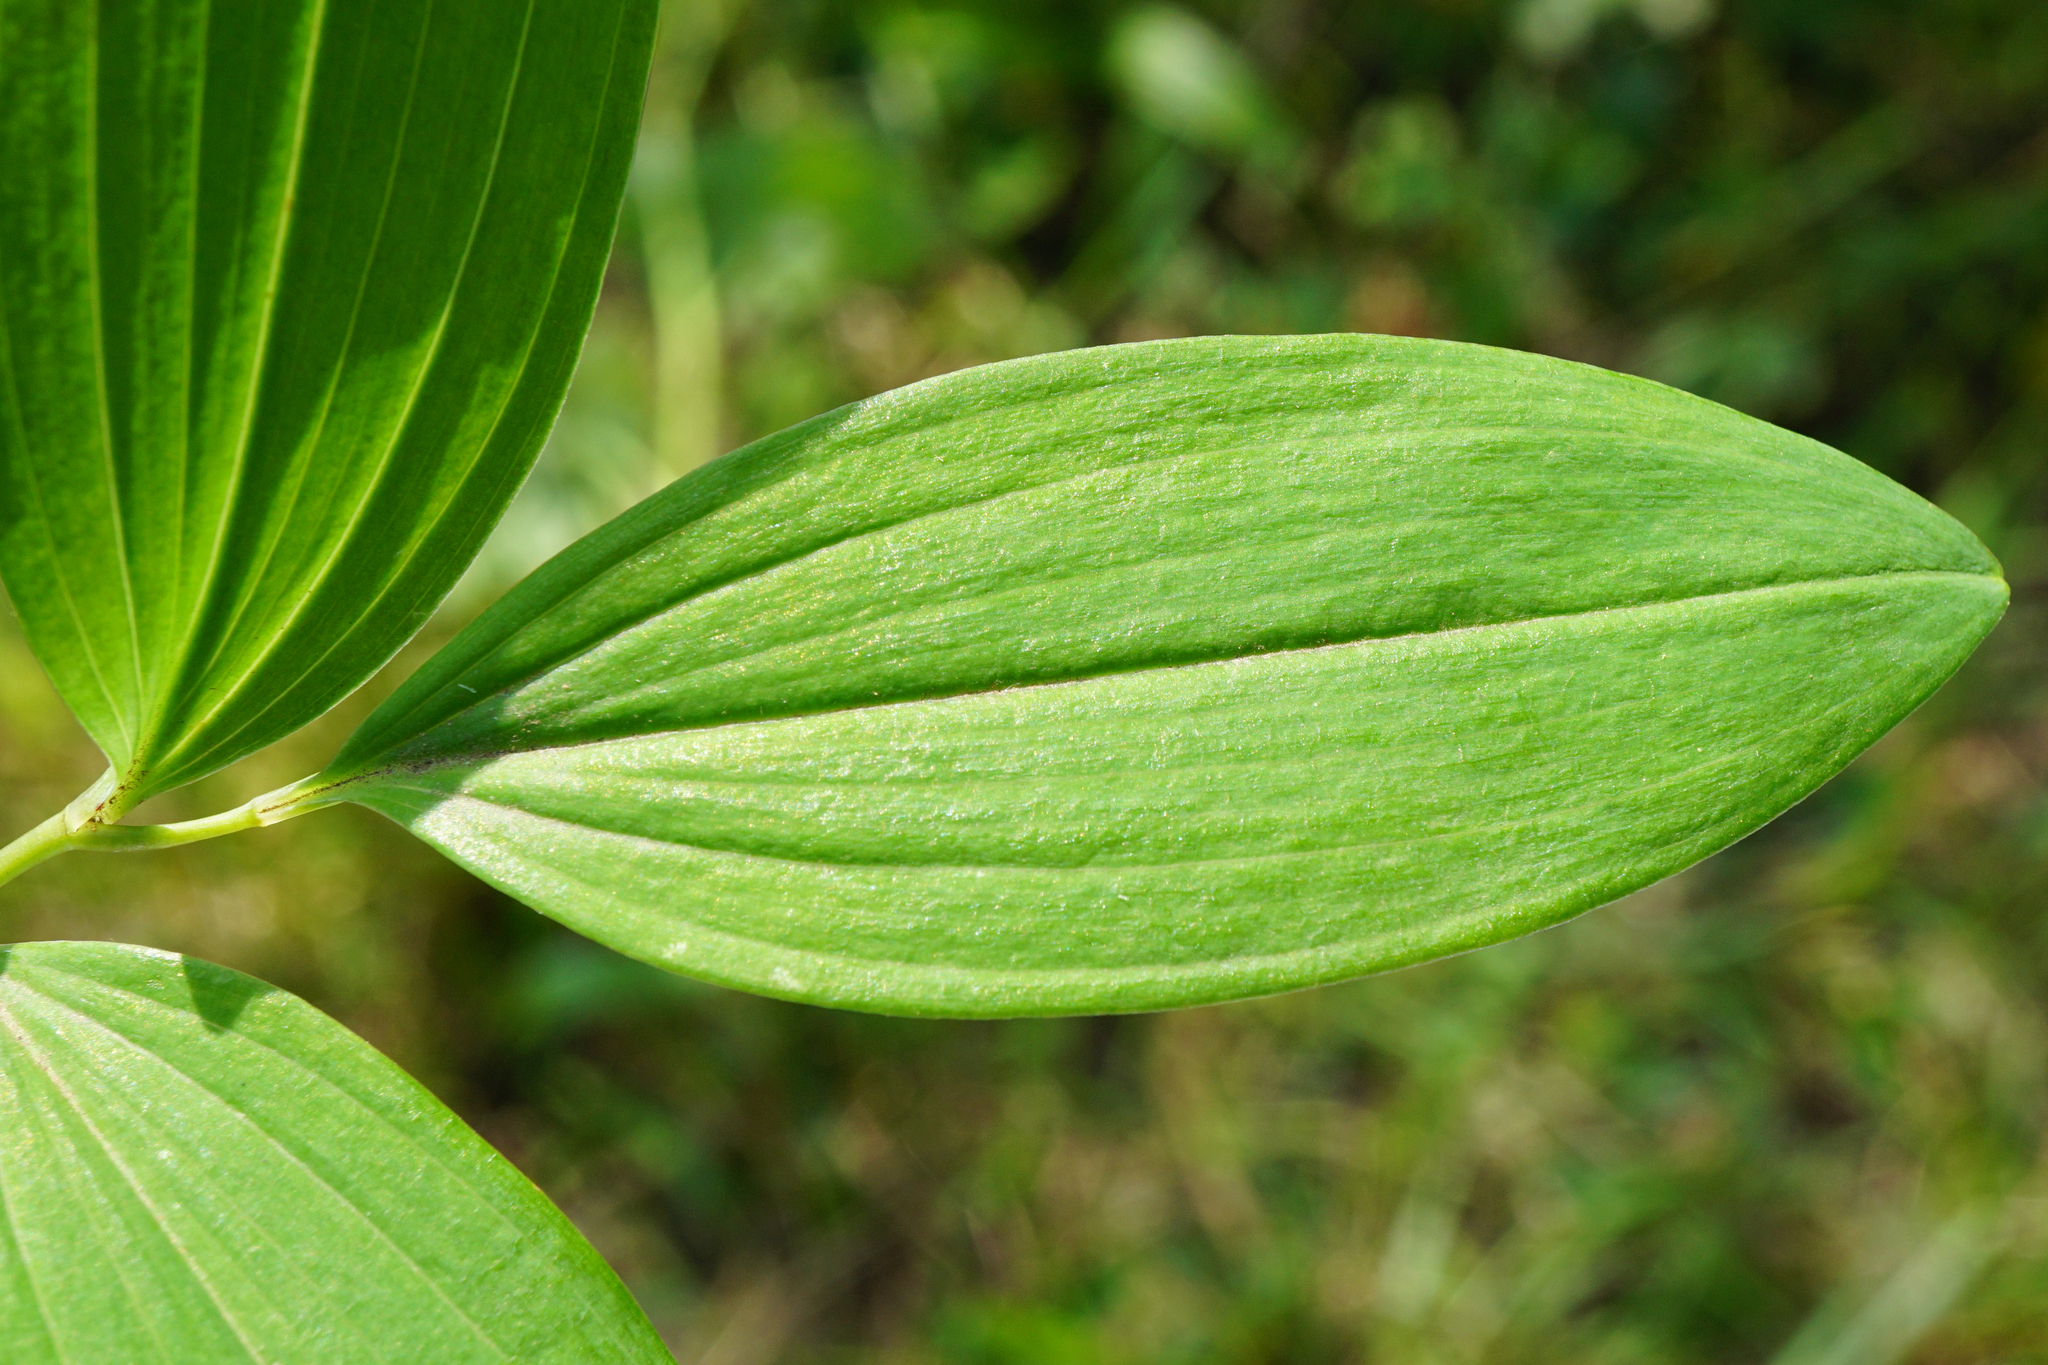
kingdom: Plantae
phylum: Tracheophyta
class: Liliopsida
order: Asparagales
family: Asparagaceae
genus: Polygonatum
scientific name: Polygonatum multiflorum
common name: Solomon's-seal
